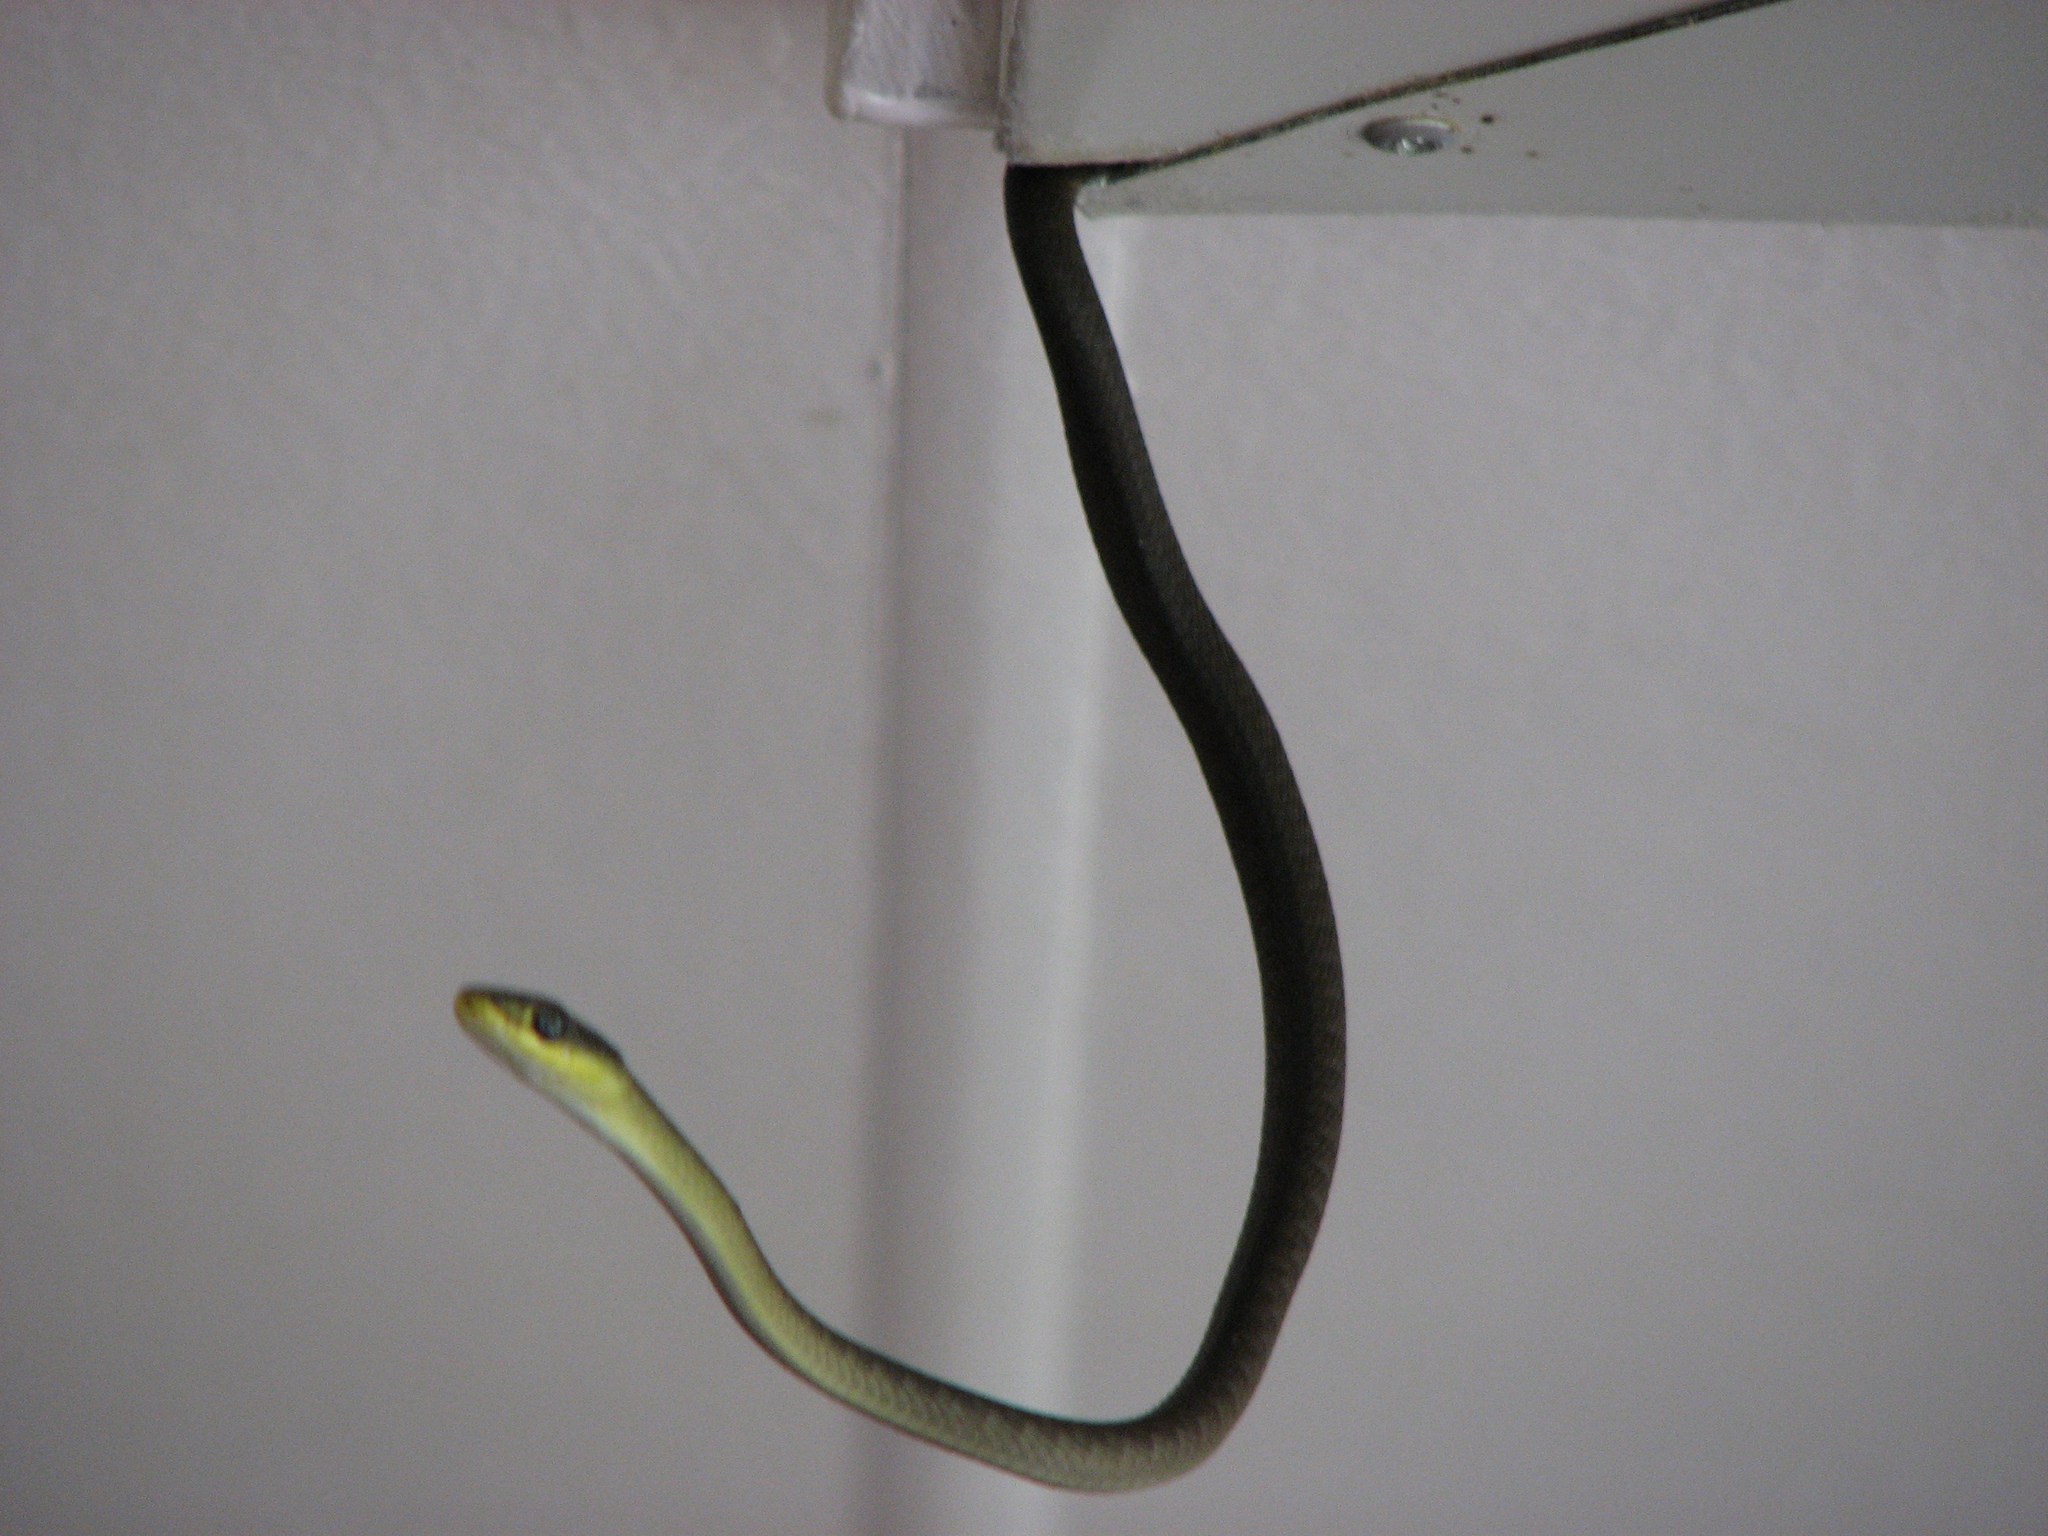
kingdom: Animalia
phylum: Chordata
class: Squamata
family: Colubridae
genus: Dendrelaphis
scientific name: Dendrelaphis punctulatus
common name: Common tree snake
